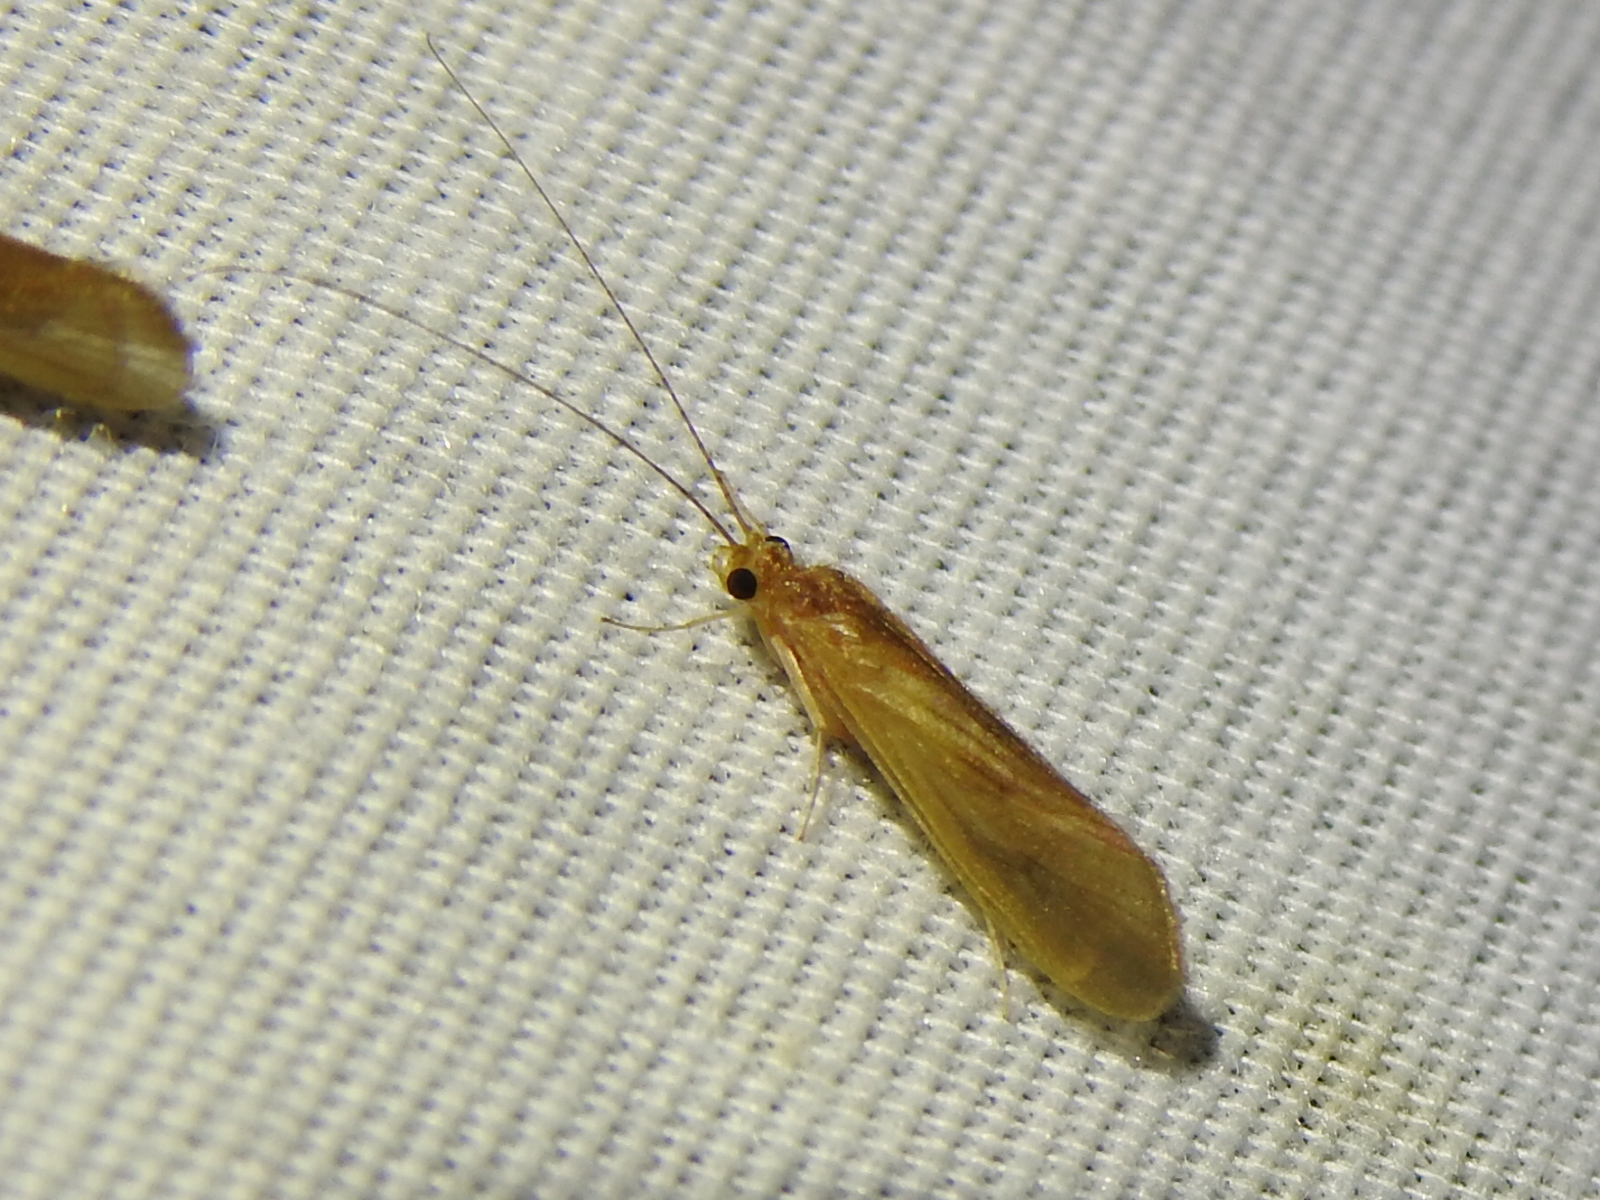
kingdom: Animalia
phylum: Arthropoda
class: Insecta
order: Trichoptera
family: Hydropsychidae
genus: Potamyia
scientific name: Potamyia flava
